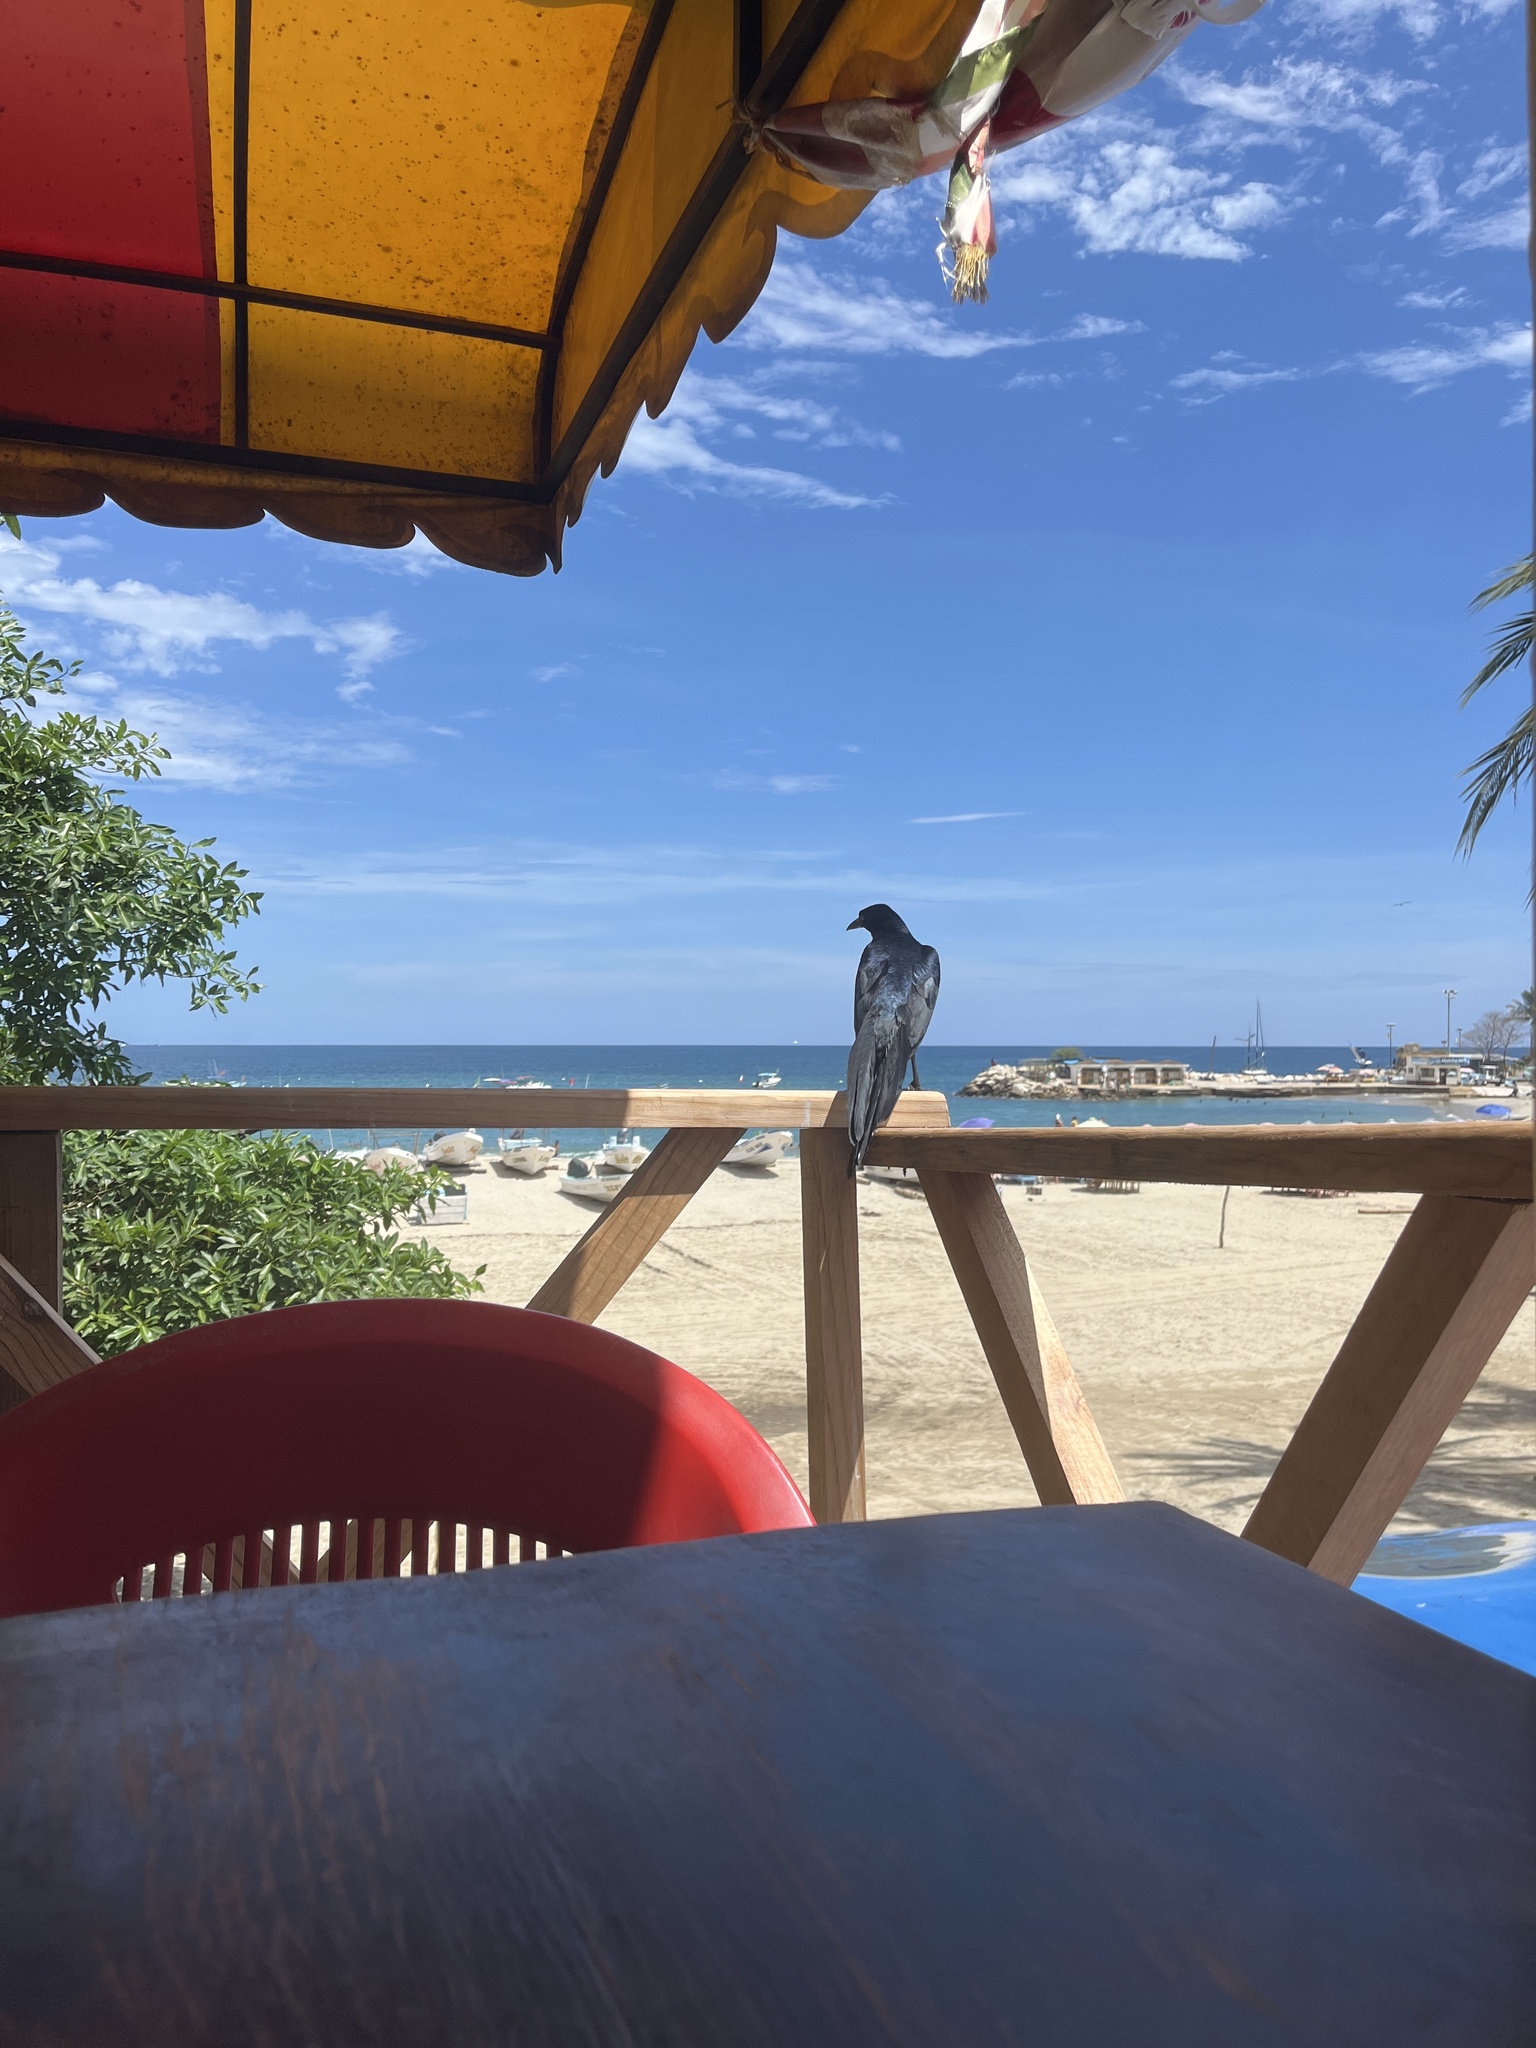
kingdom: Animalia
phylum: Chordata
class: Aves
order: Passeriformes
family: Icteridae
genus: Quiscalus
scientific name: Quiscalus mexicanus
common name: Great-tailed grackle
